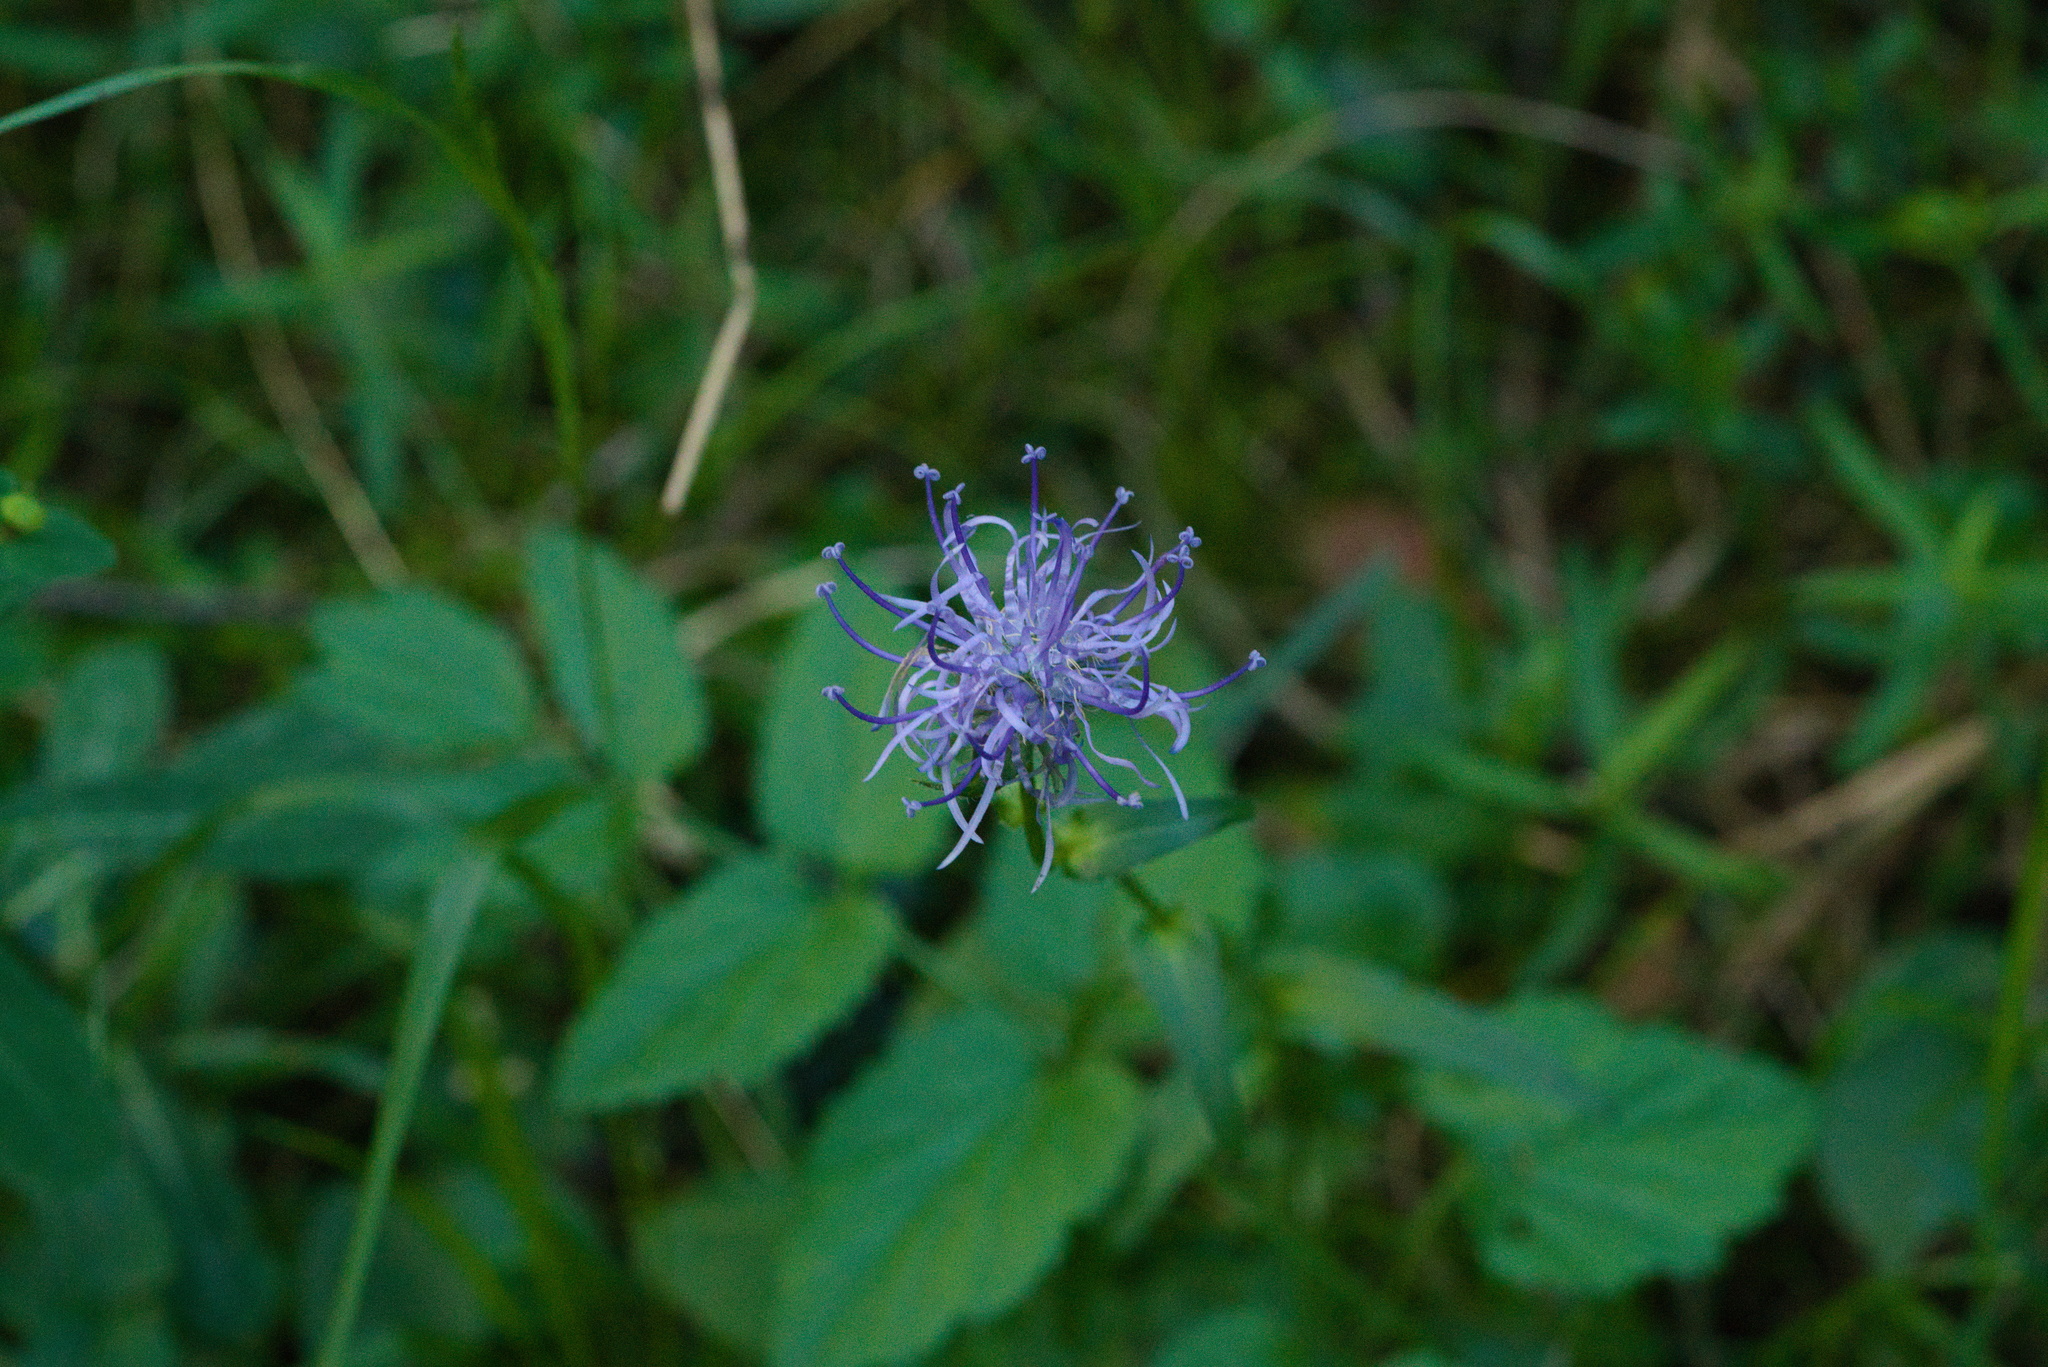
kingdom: Plantae
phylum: Tracheophyta
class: Magnoliopsida
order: Asterales
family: Campanulaceae
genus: Phyteuma
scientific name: Phyteuma orbiculare
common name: Round-headed rampion
